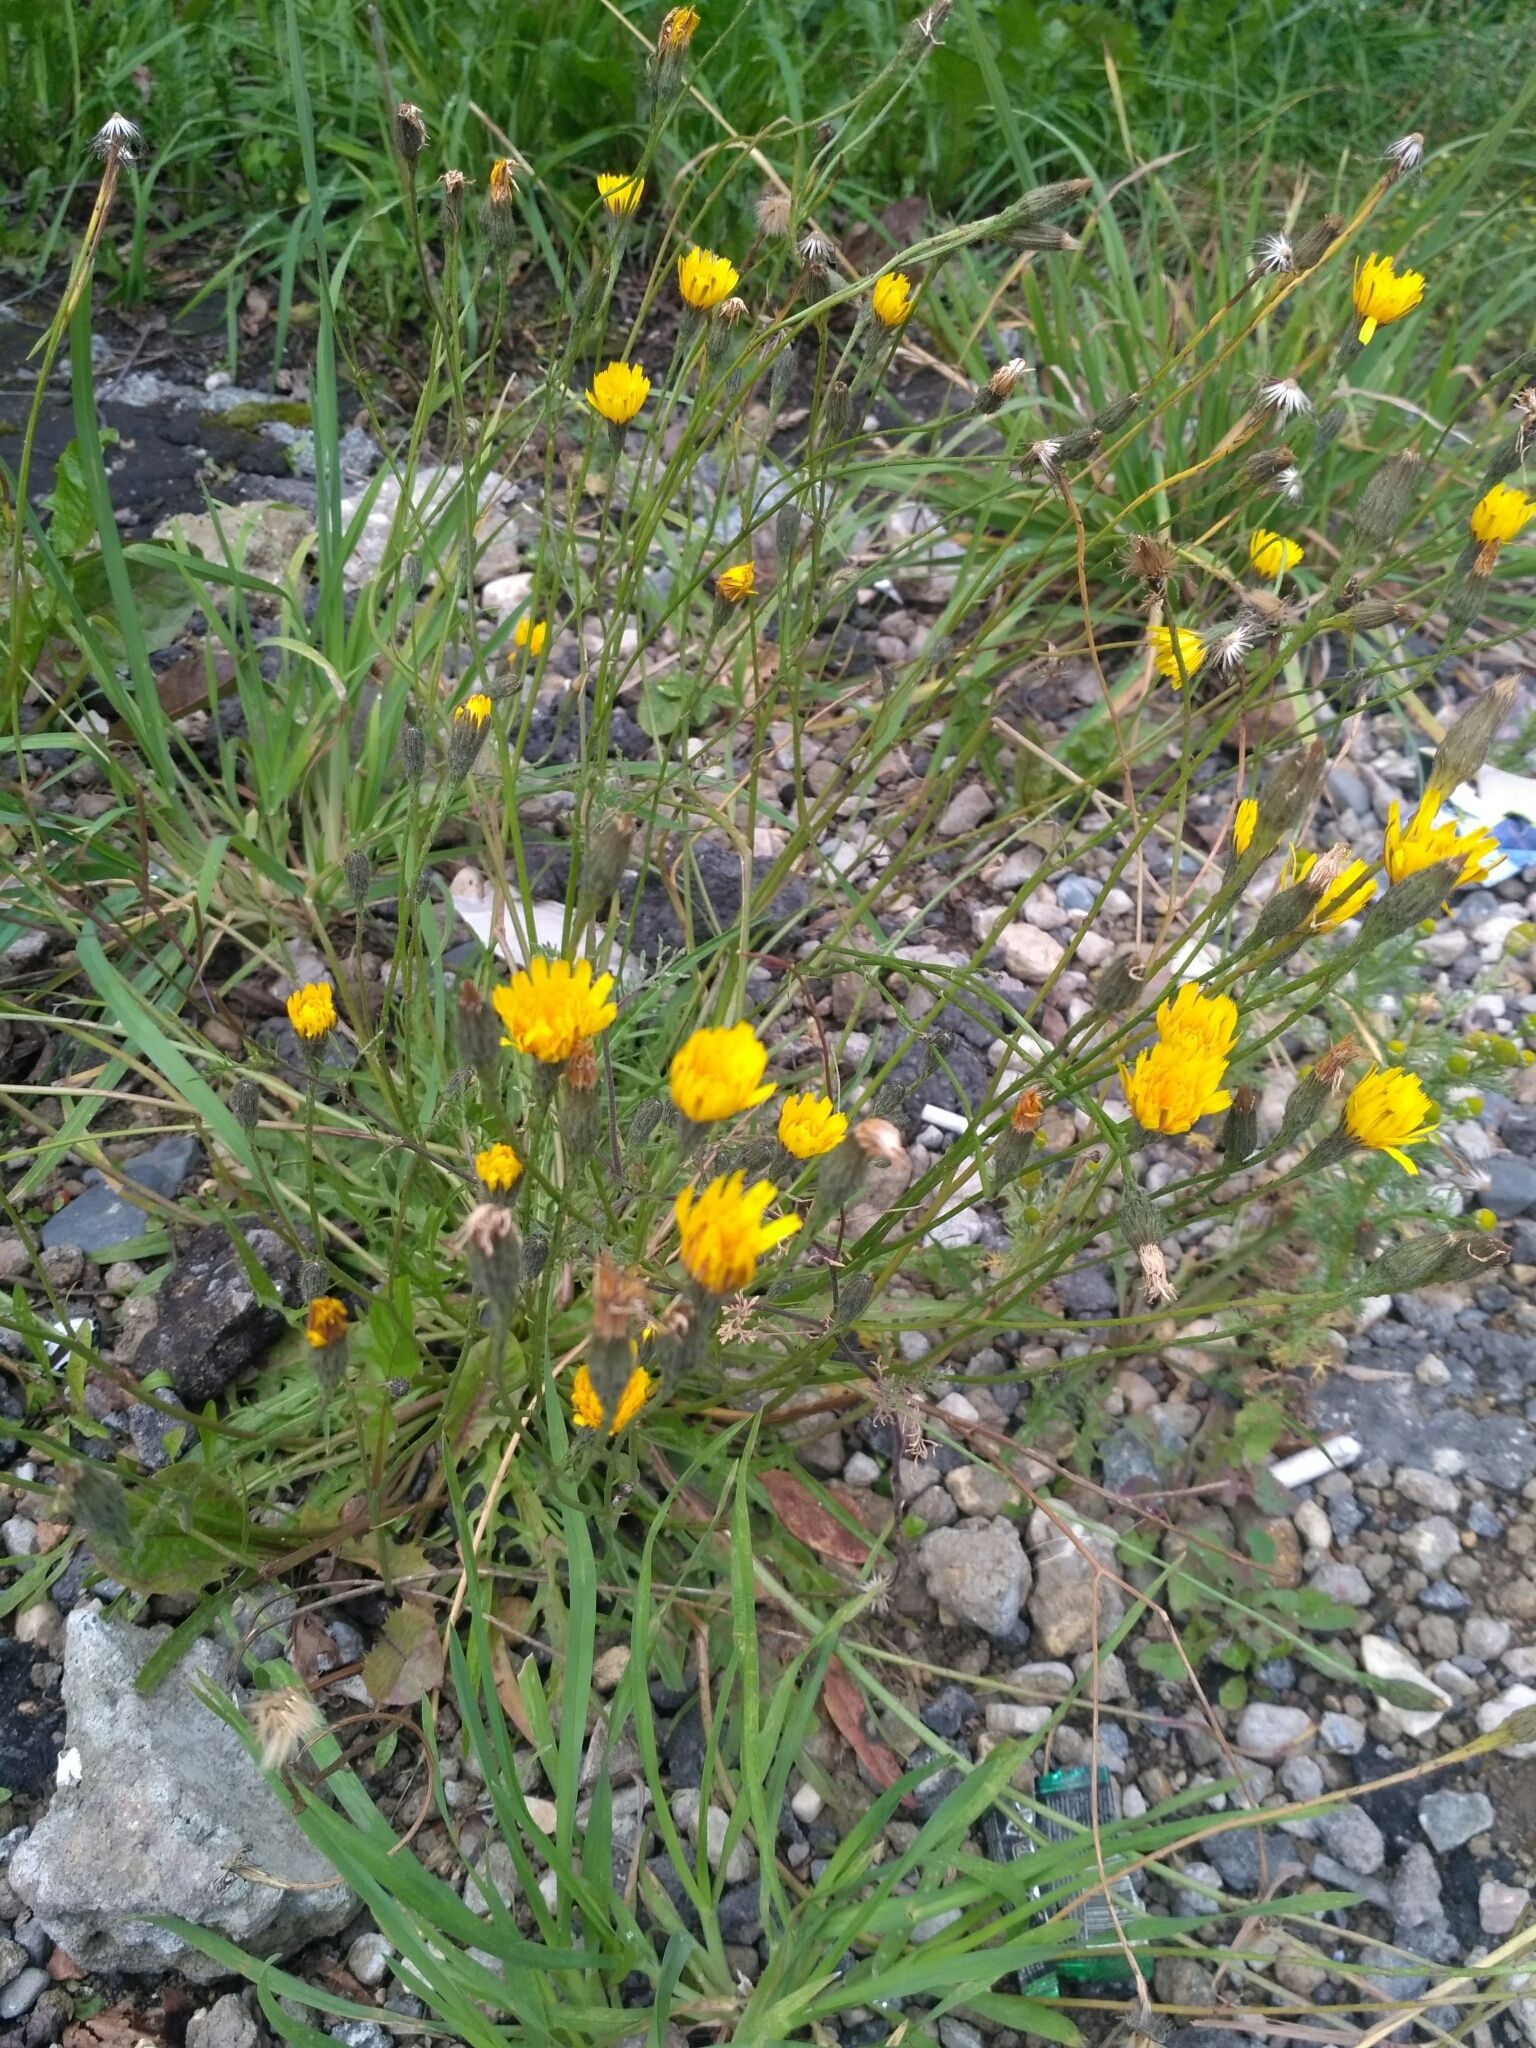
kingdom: Plantae
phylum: Tracheophyta
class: Magnoliopsida
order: Asterales
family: Asteraceae
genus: Scorzoneroides
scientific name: Scorzoneroides autumnalis
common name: Autumn hawkbit
